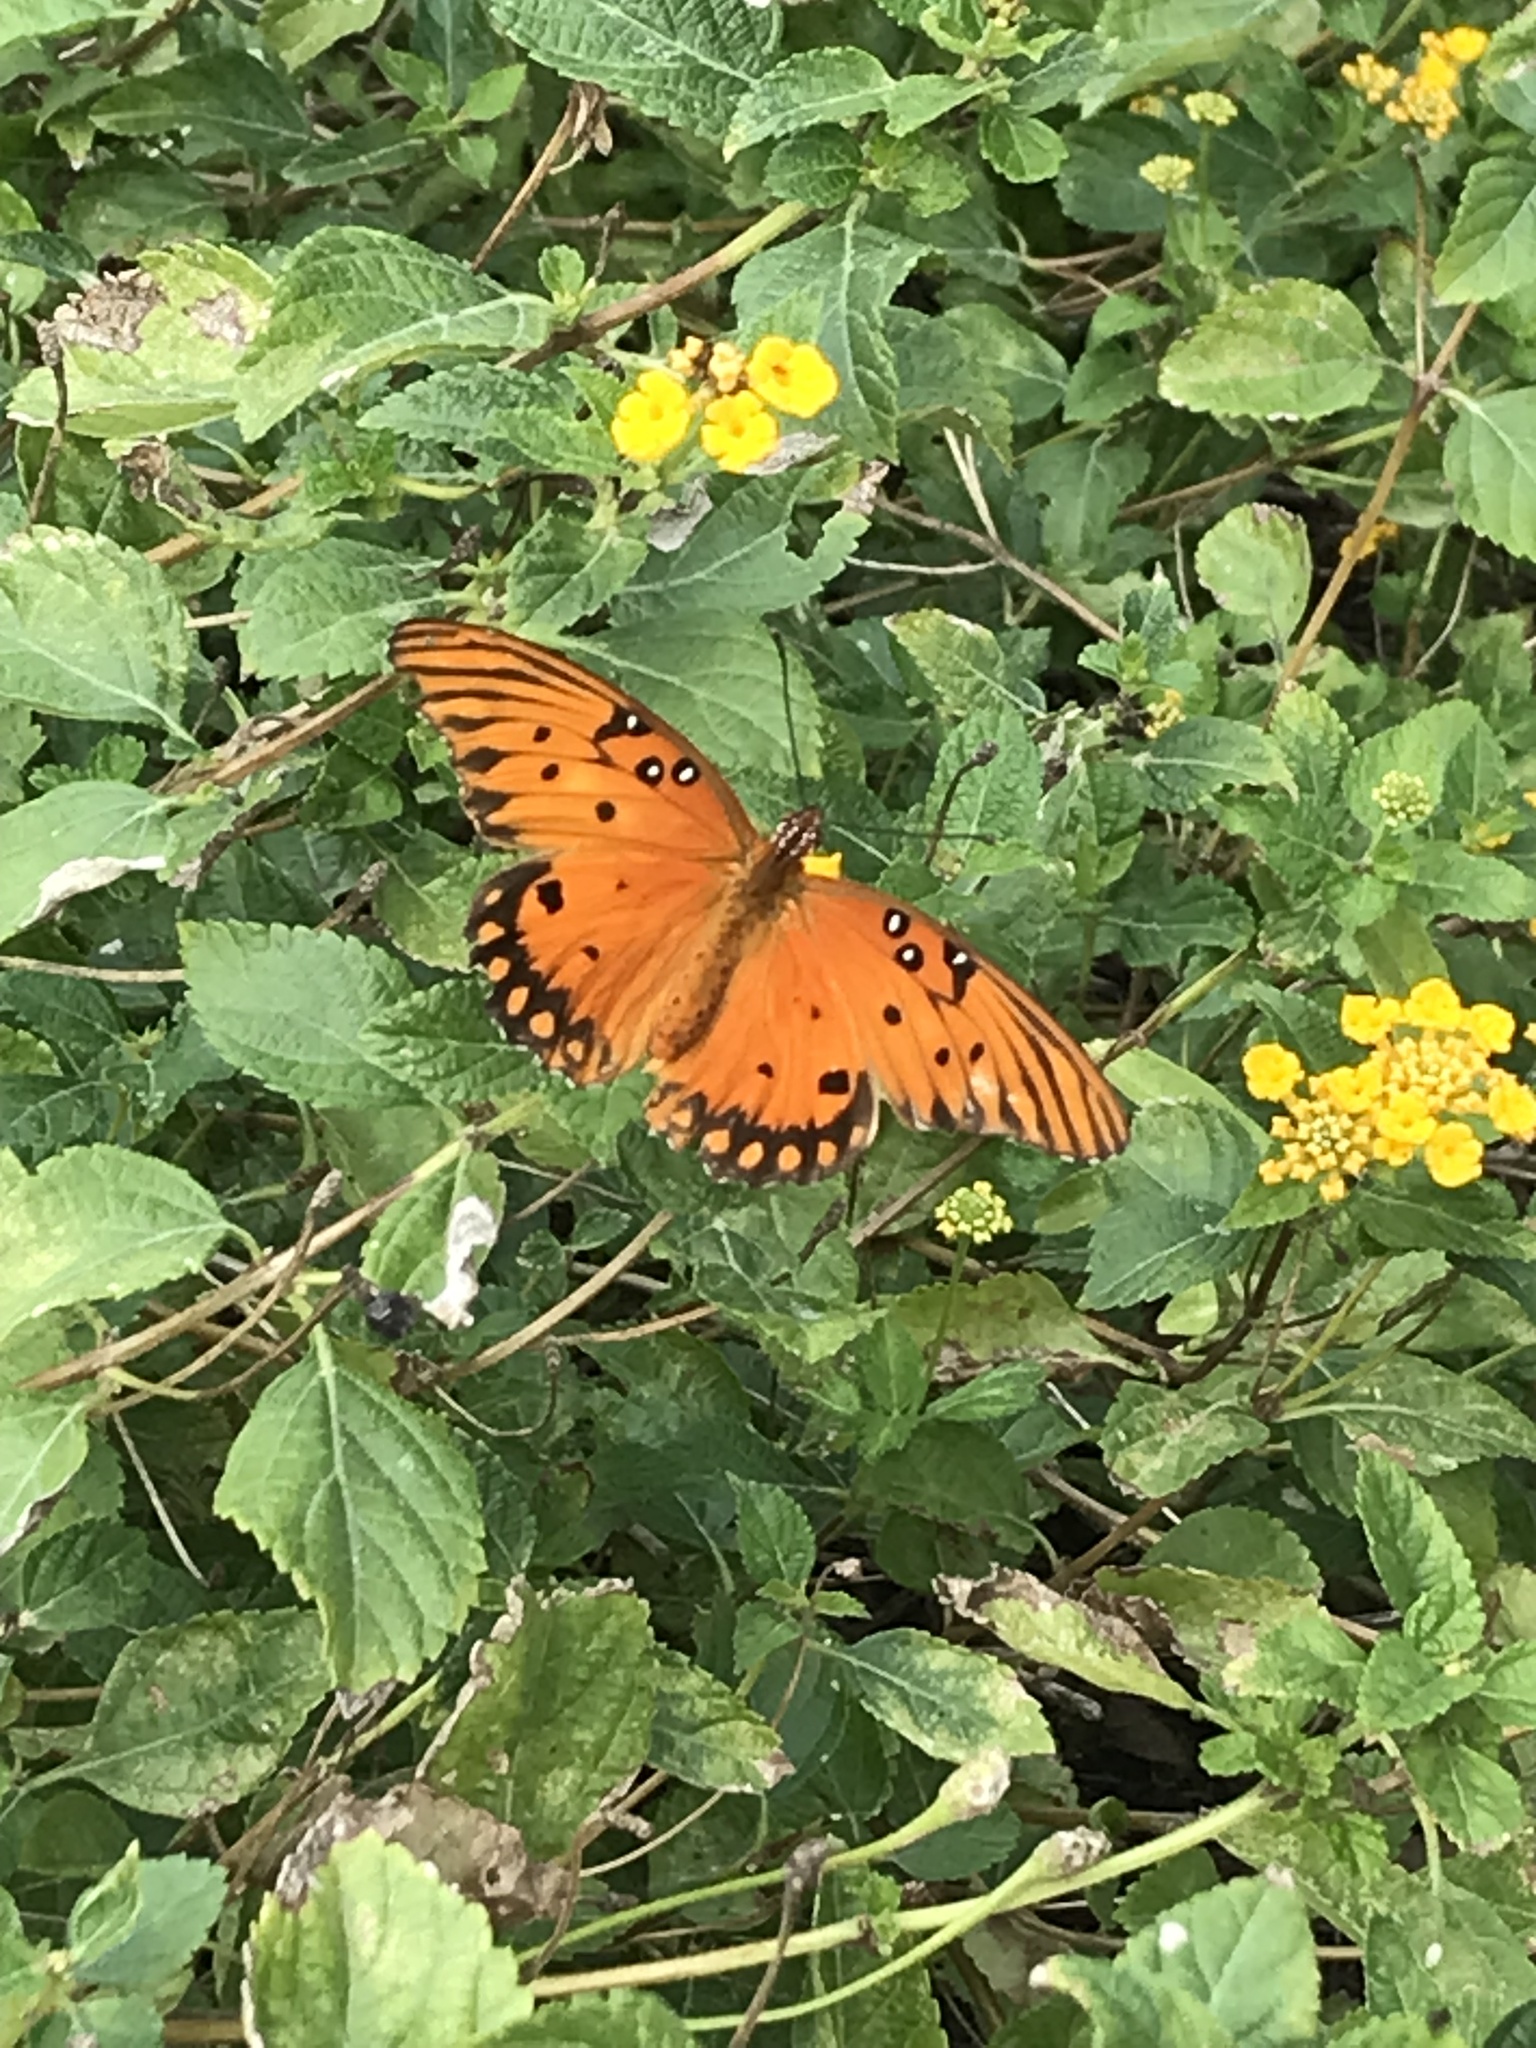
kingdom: Animalia
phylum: Arthropoda
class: Insecta
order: Lepidoptera
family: Nymphalidae
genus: Dione
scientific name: Dione vanillae
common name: Gulf fritillary
